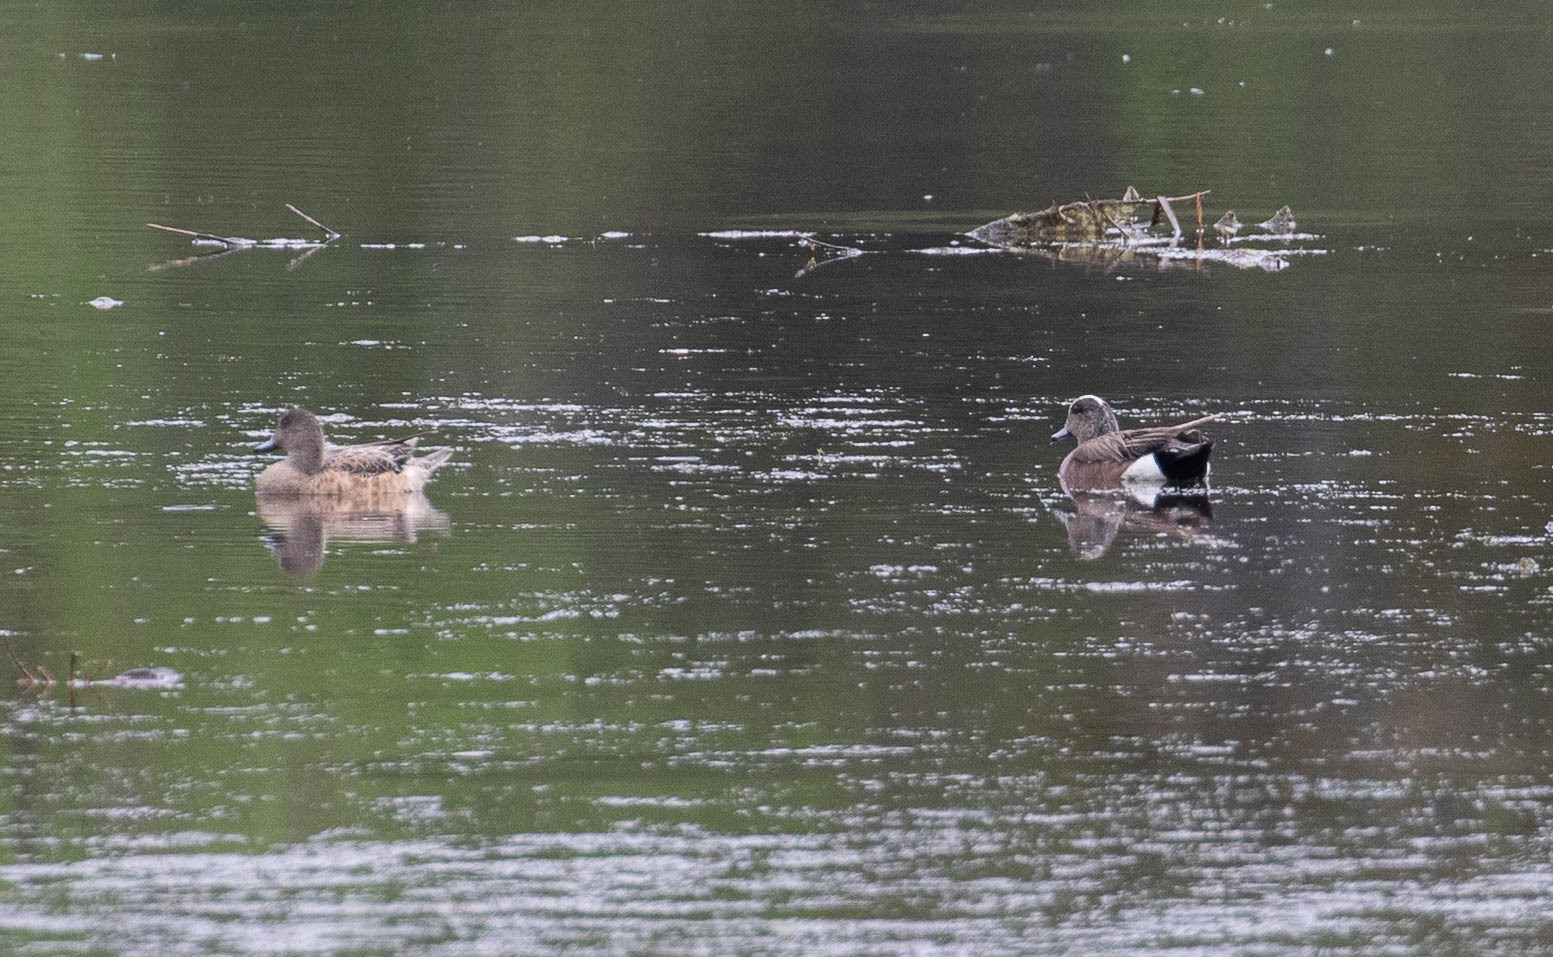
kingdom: Animalia
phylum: Chordata
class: Aves
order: Anseriformes
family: Anatidae
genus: Mareca
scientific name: Mareca americana
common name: American wigeon
